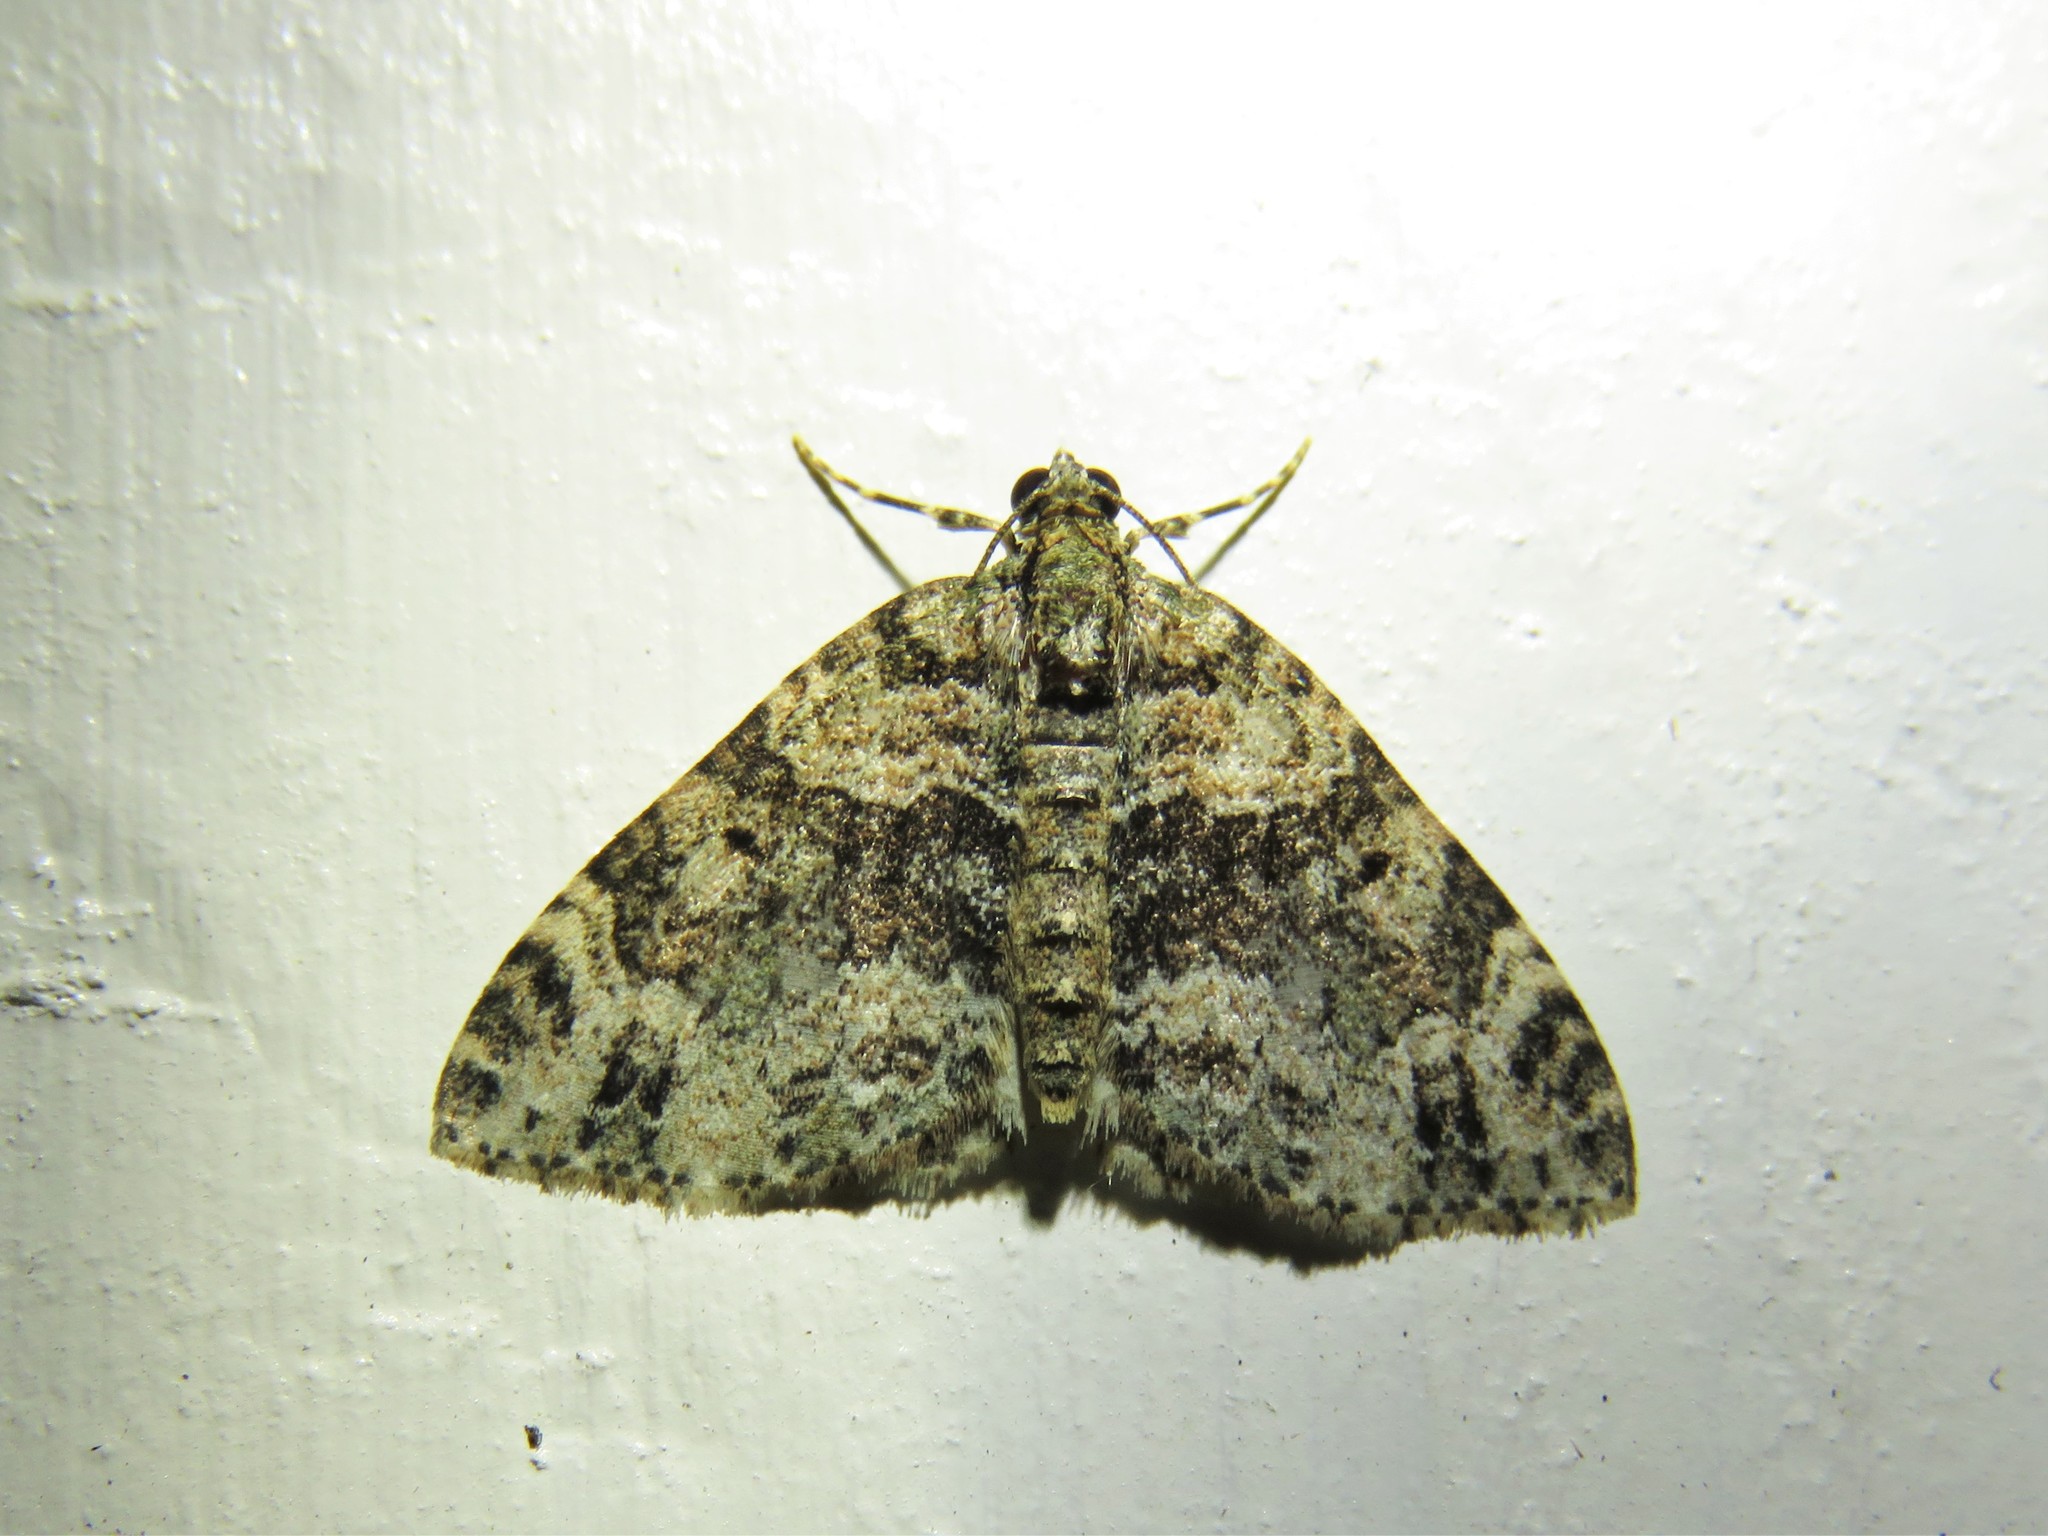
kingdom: Animalia
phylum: Arthropoda
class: Insecta
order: Lepidoptera
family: Geometridae
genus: Hammaptera
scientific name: Hammaptera parinotata
